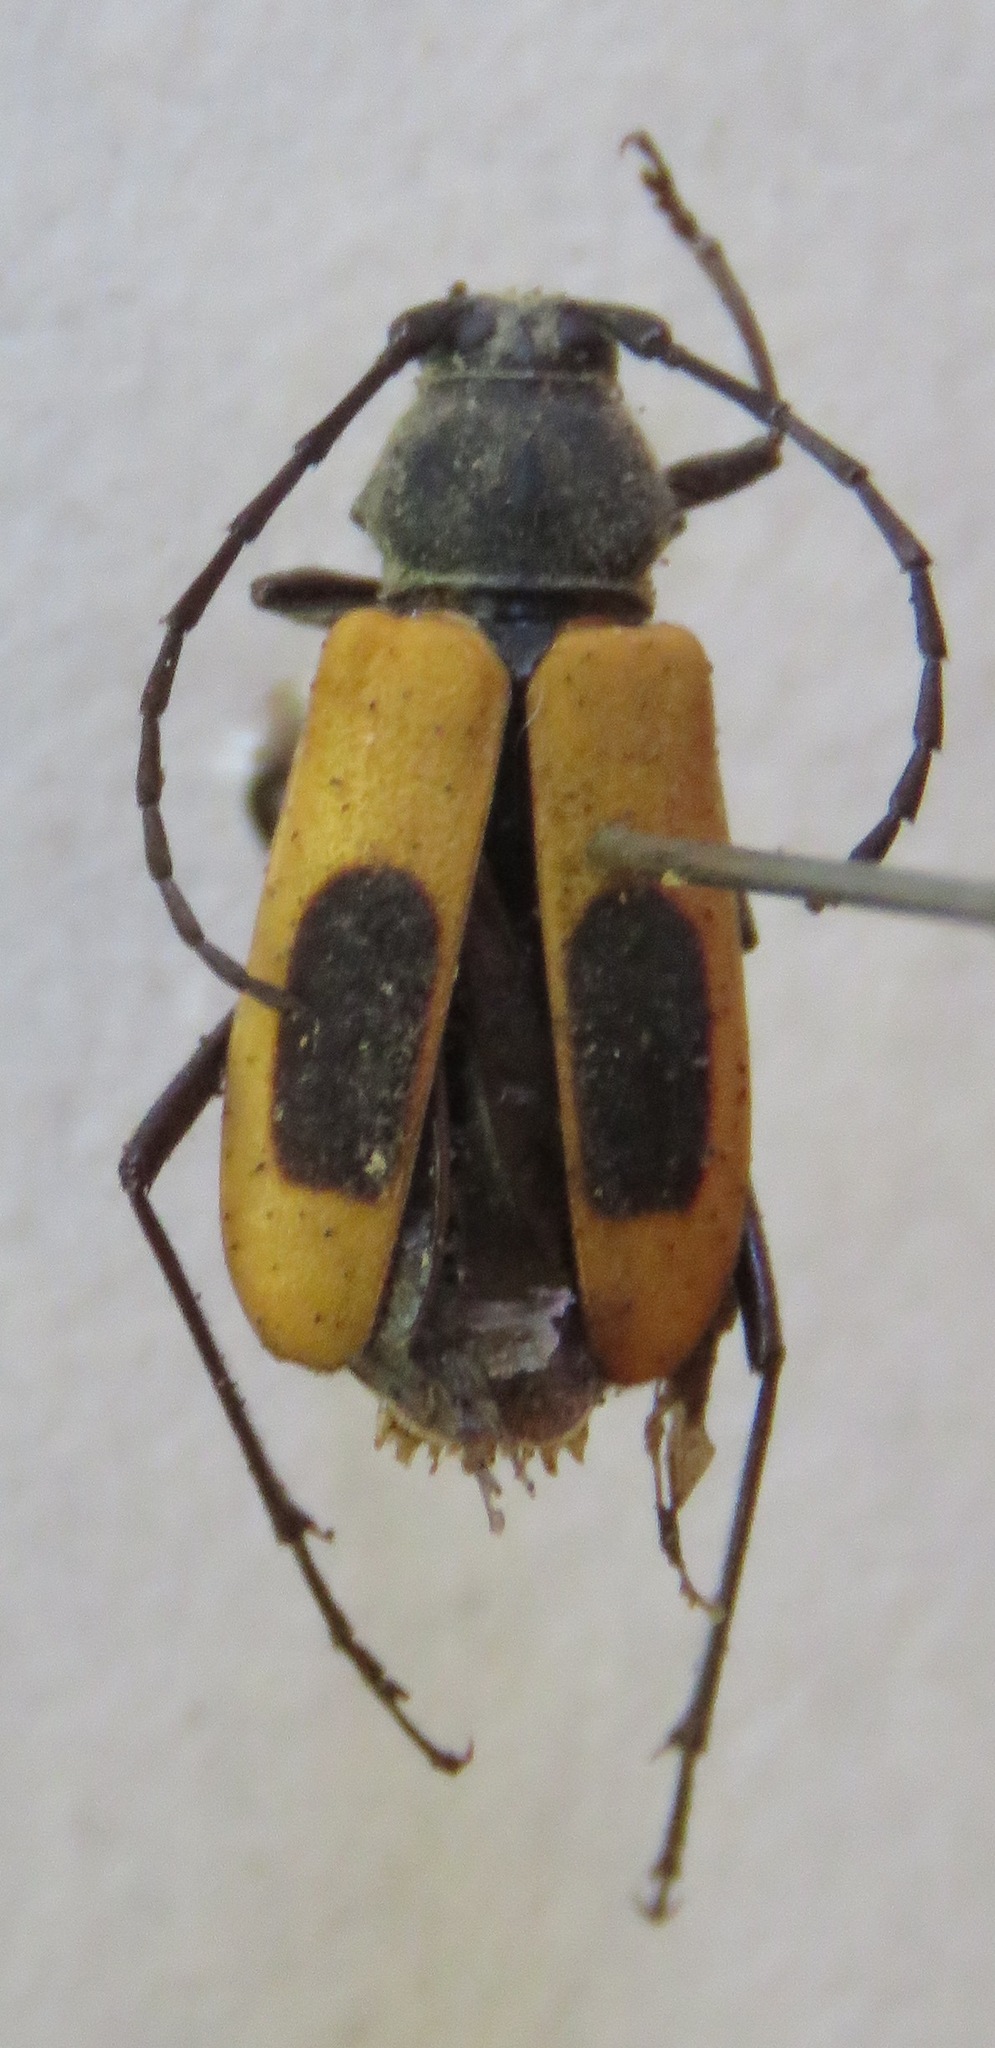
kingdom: Animalia
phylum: Arthropoda
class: Insecta
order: Coleoptera
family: Cerambycidae
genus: Metaleptus
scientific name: Metaleptus angulatus
